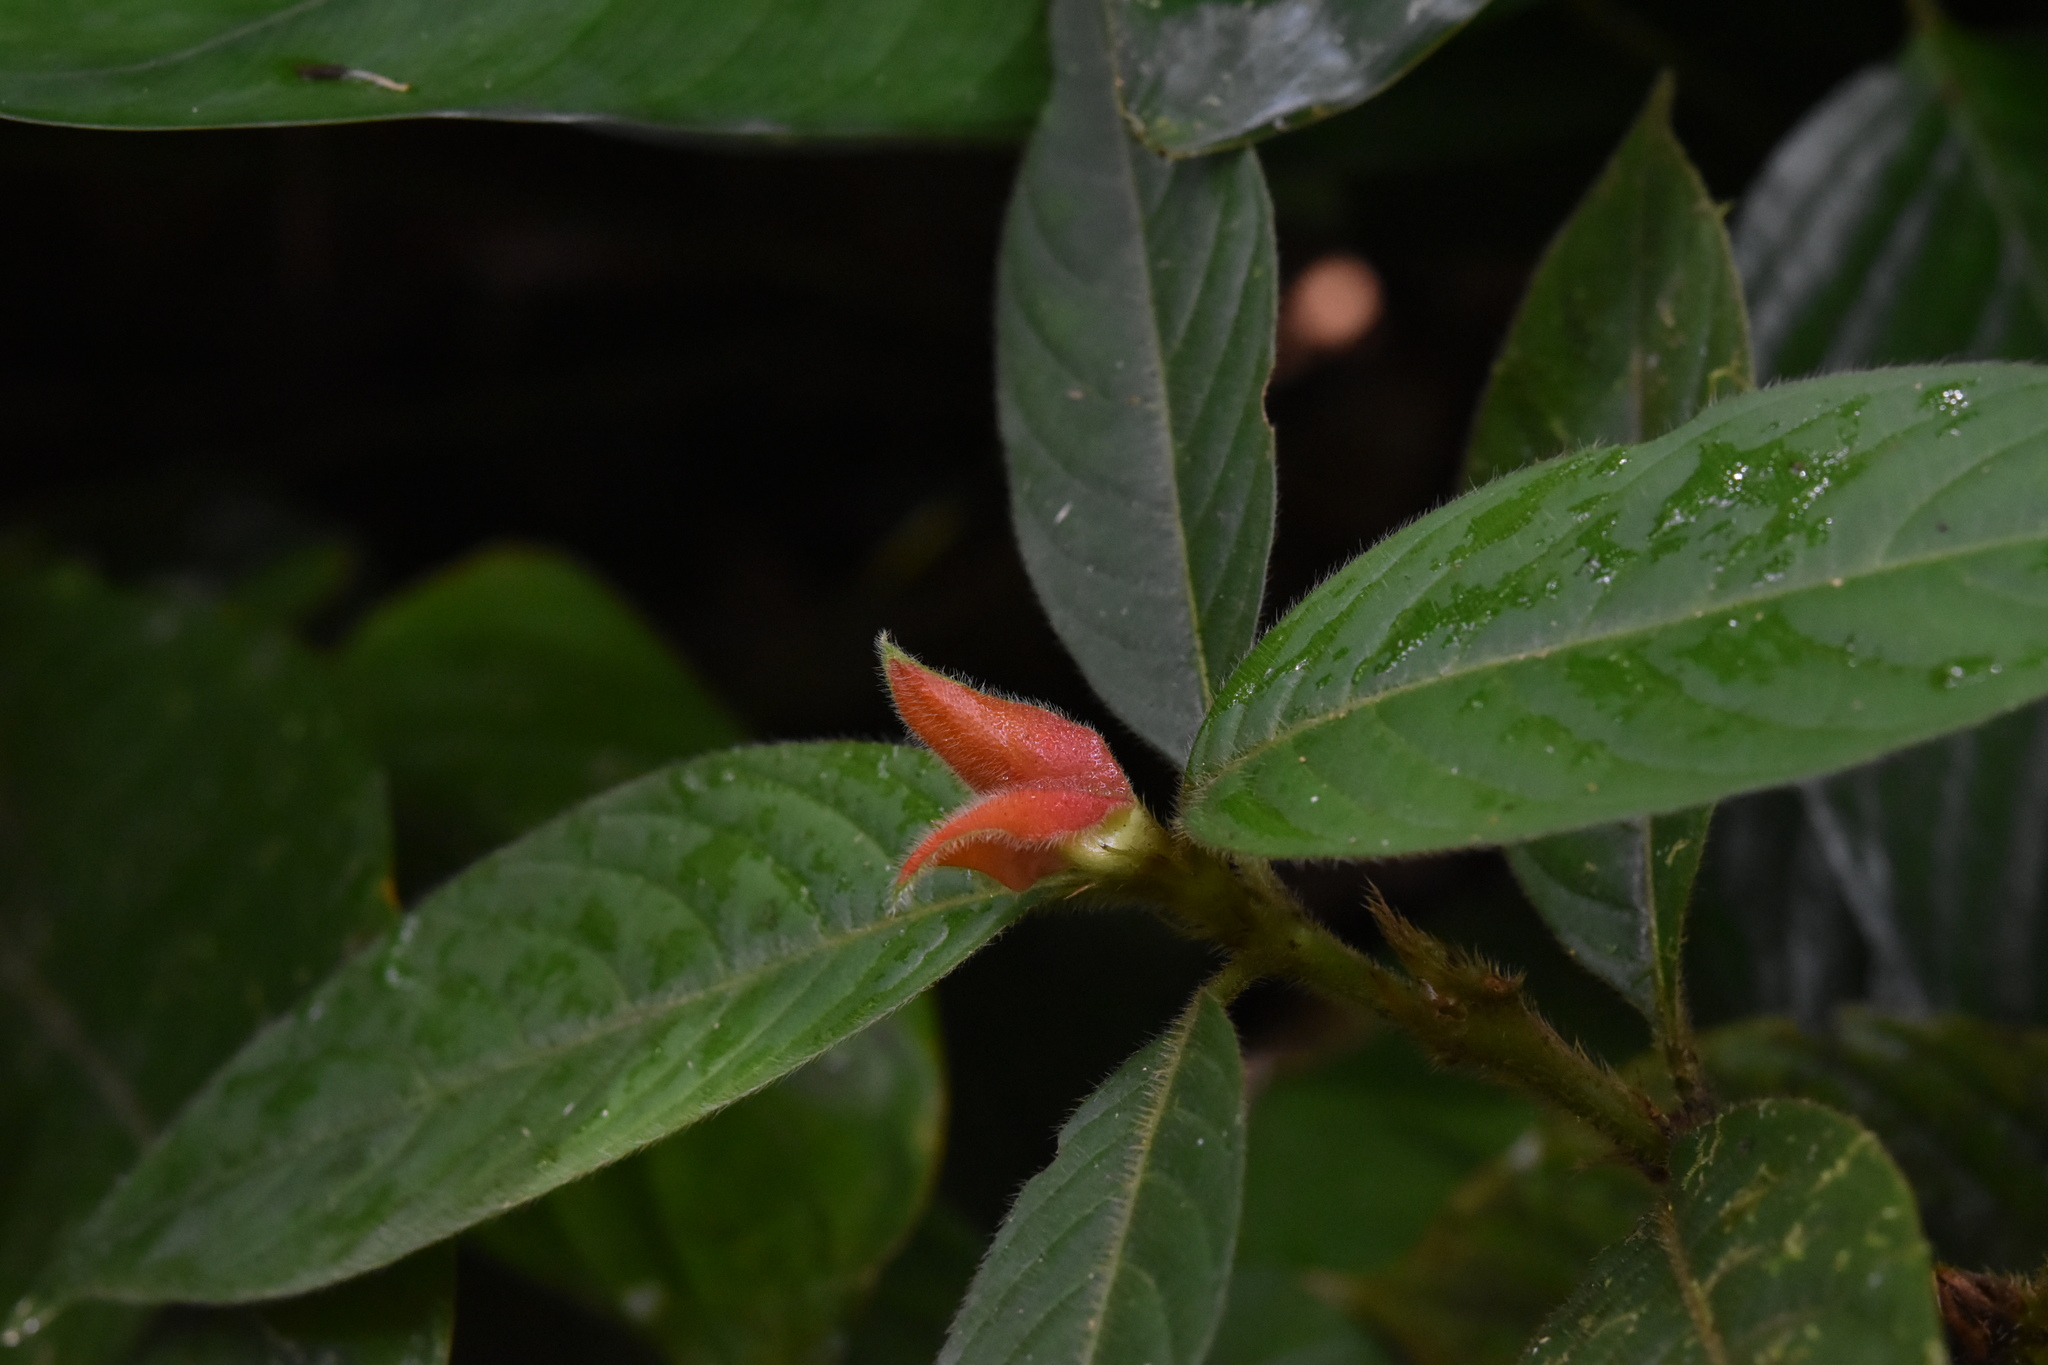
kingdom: Plantae
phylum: Tracheophyta
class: Magnoliopsida
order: Gentianales
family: Rubiaceae
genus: Palicourea
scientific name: Palicourea tomentosa
